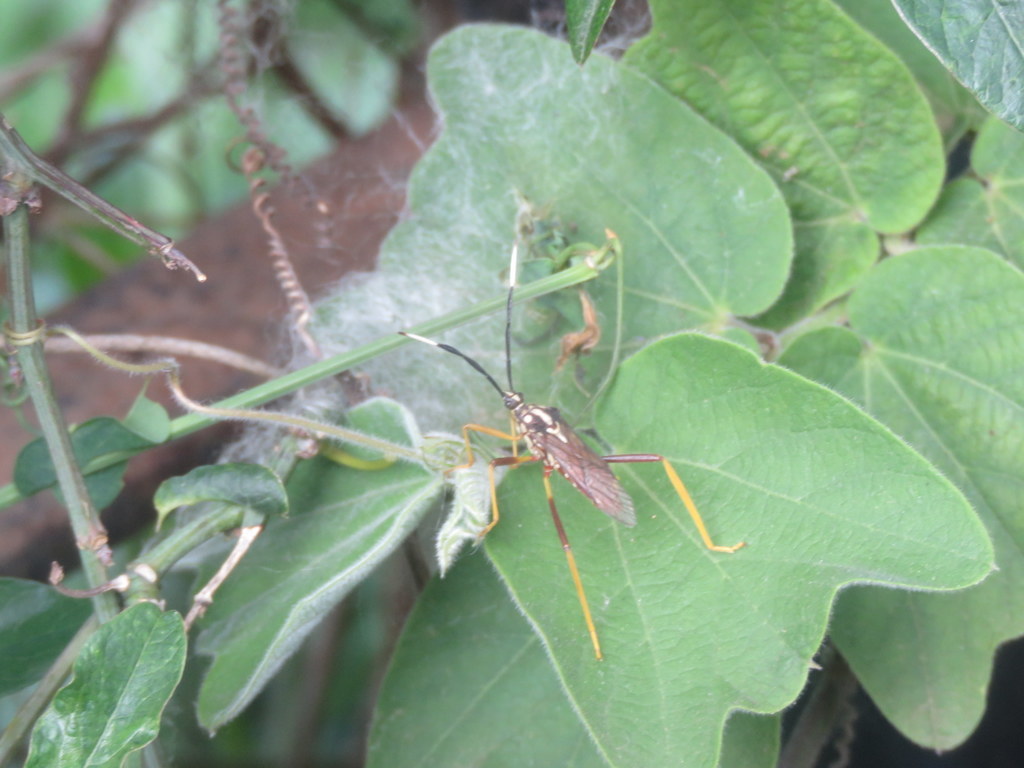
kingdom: Animalia
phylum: Arthropoda
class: Insecta
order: Hemiptera
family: Coreidae
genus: Holhymenia
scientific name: Holhymenia histrio
